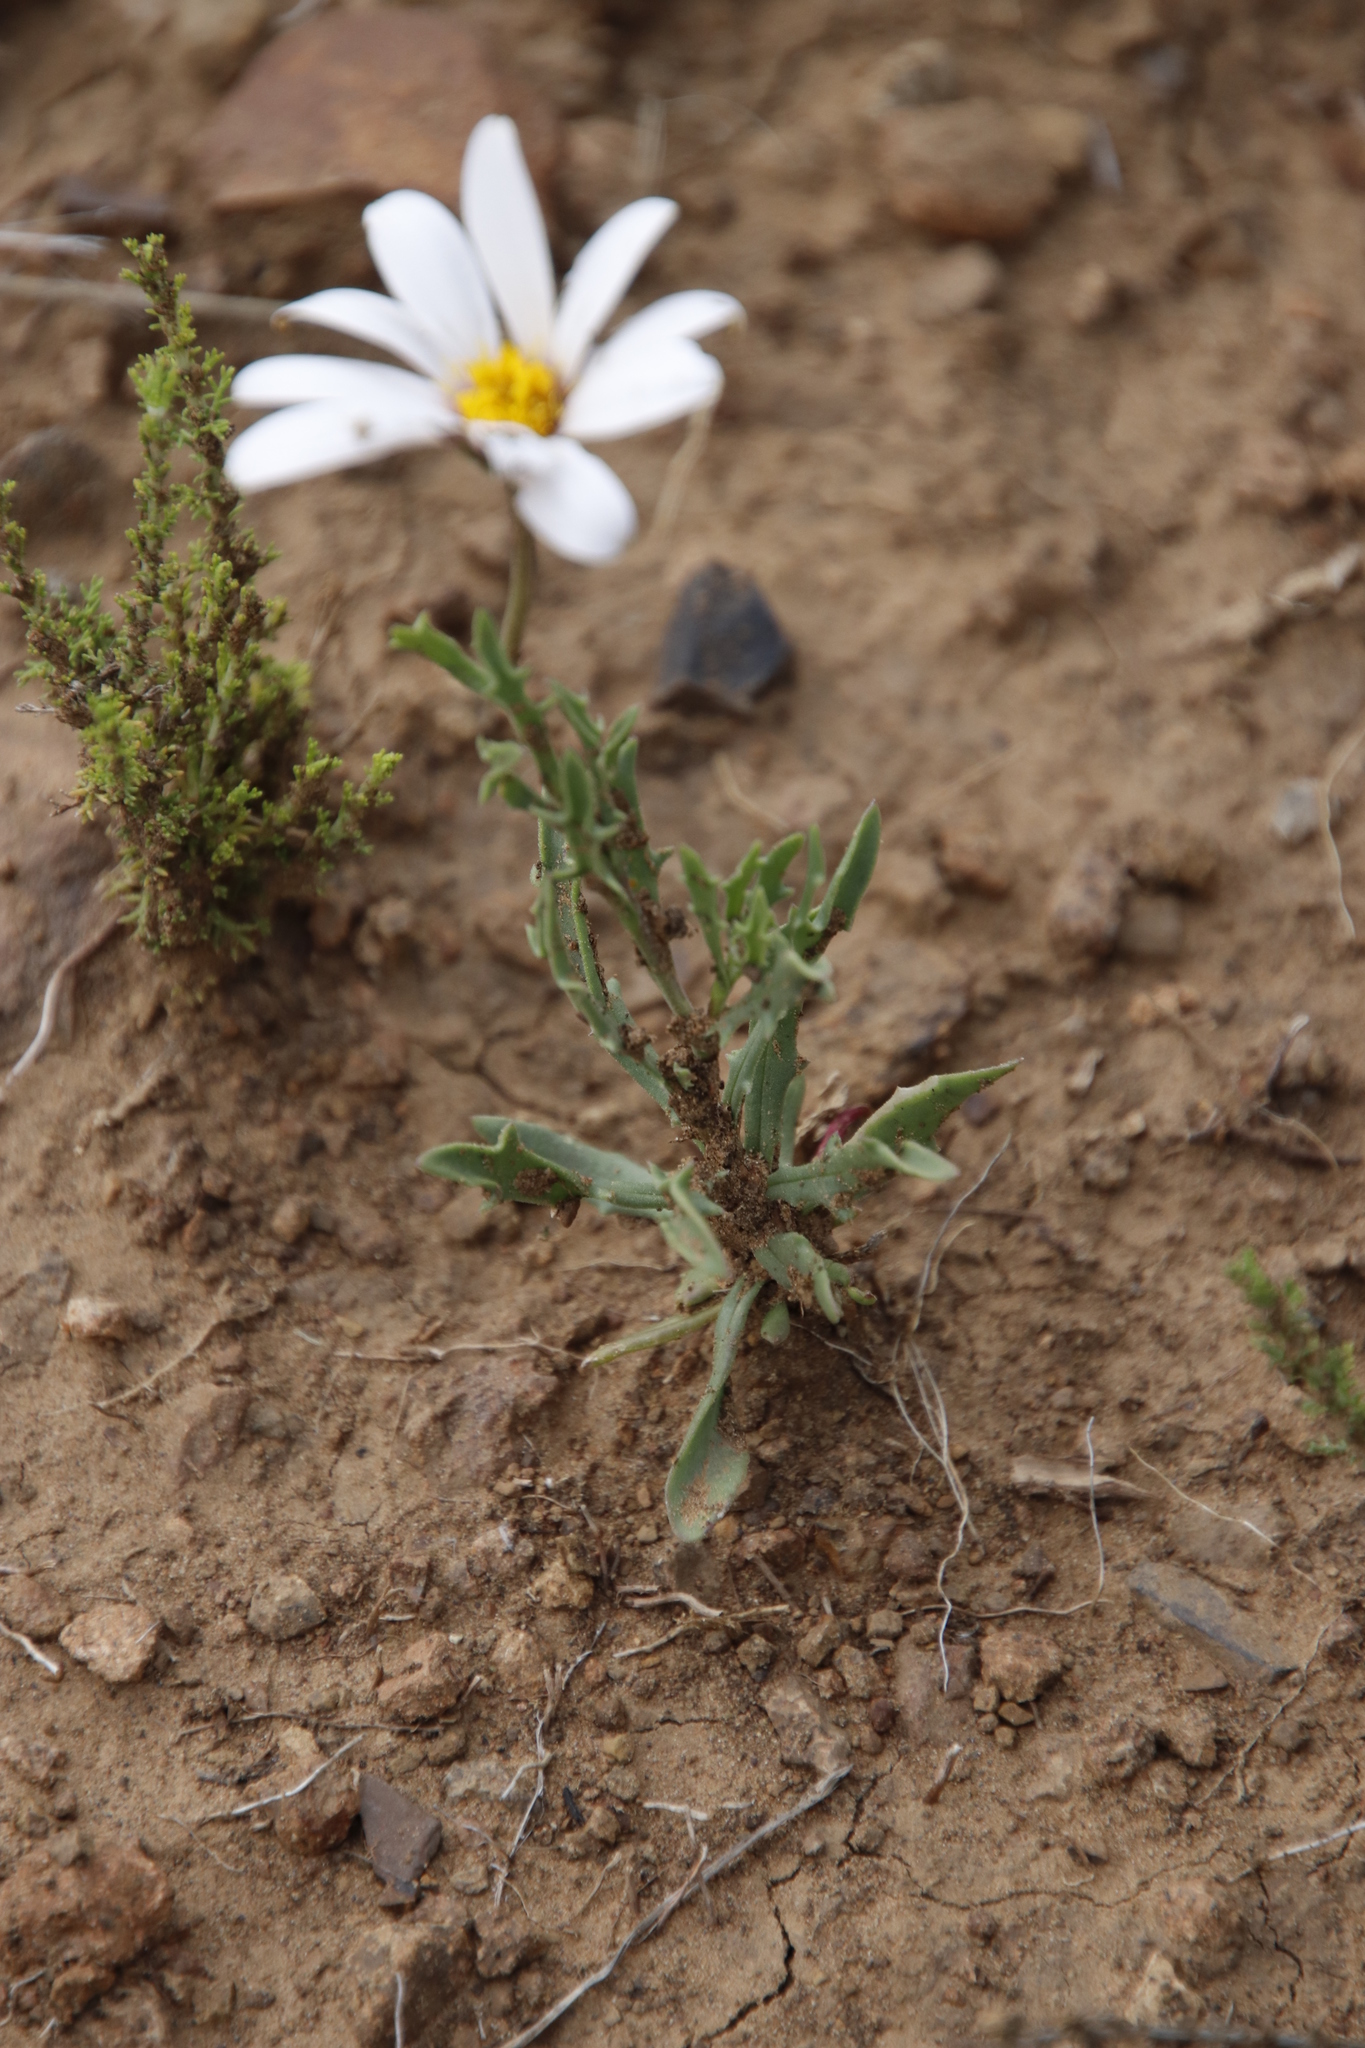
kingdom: Plantae
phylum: Tracheophyta
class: Magnoliopsida
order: Asterales
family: Asteraceae
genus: Dimorphotheca
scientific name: Dimorphotheca cuneata
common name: Daisy
